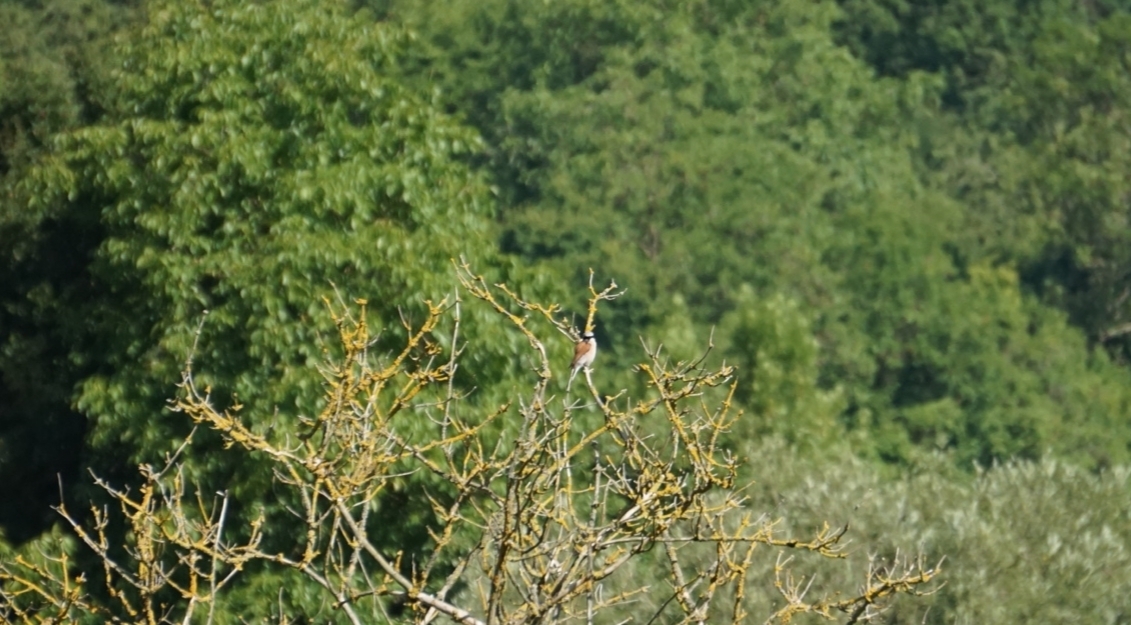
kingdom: Animalia
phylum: Chordata
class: Aves
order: Passeriformes
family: Laniidae
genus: Lanius
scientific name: Lanius collurio
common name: Red-backed shrike
